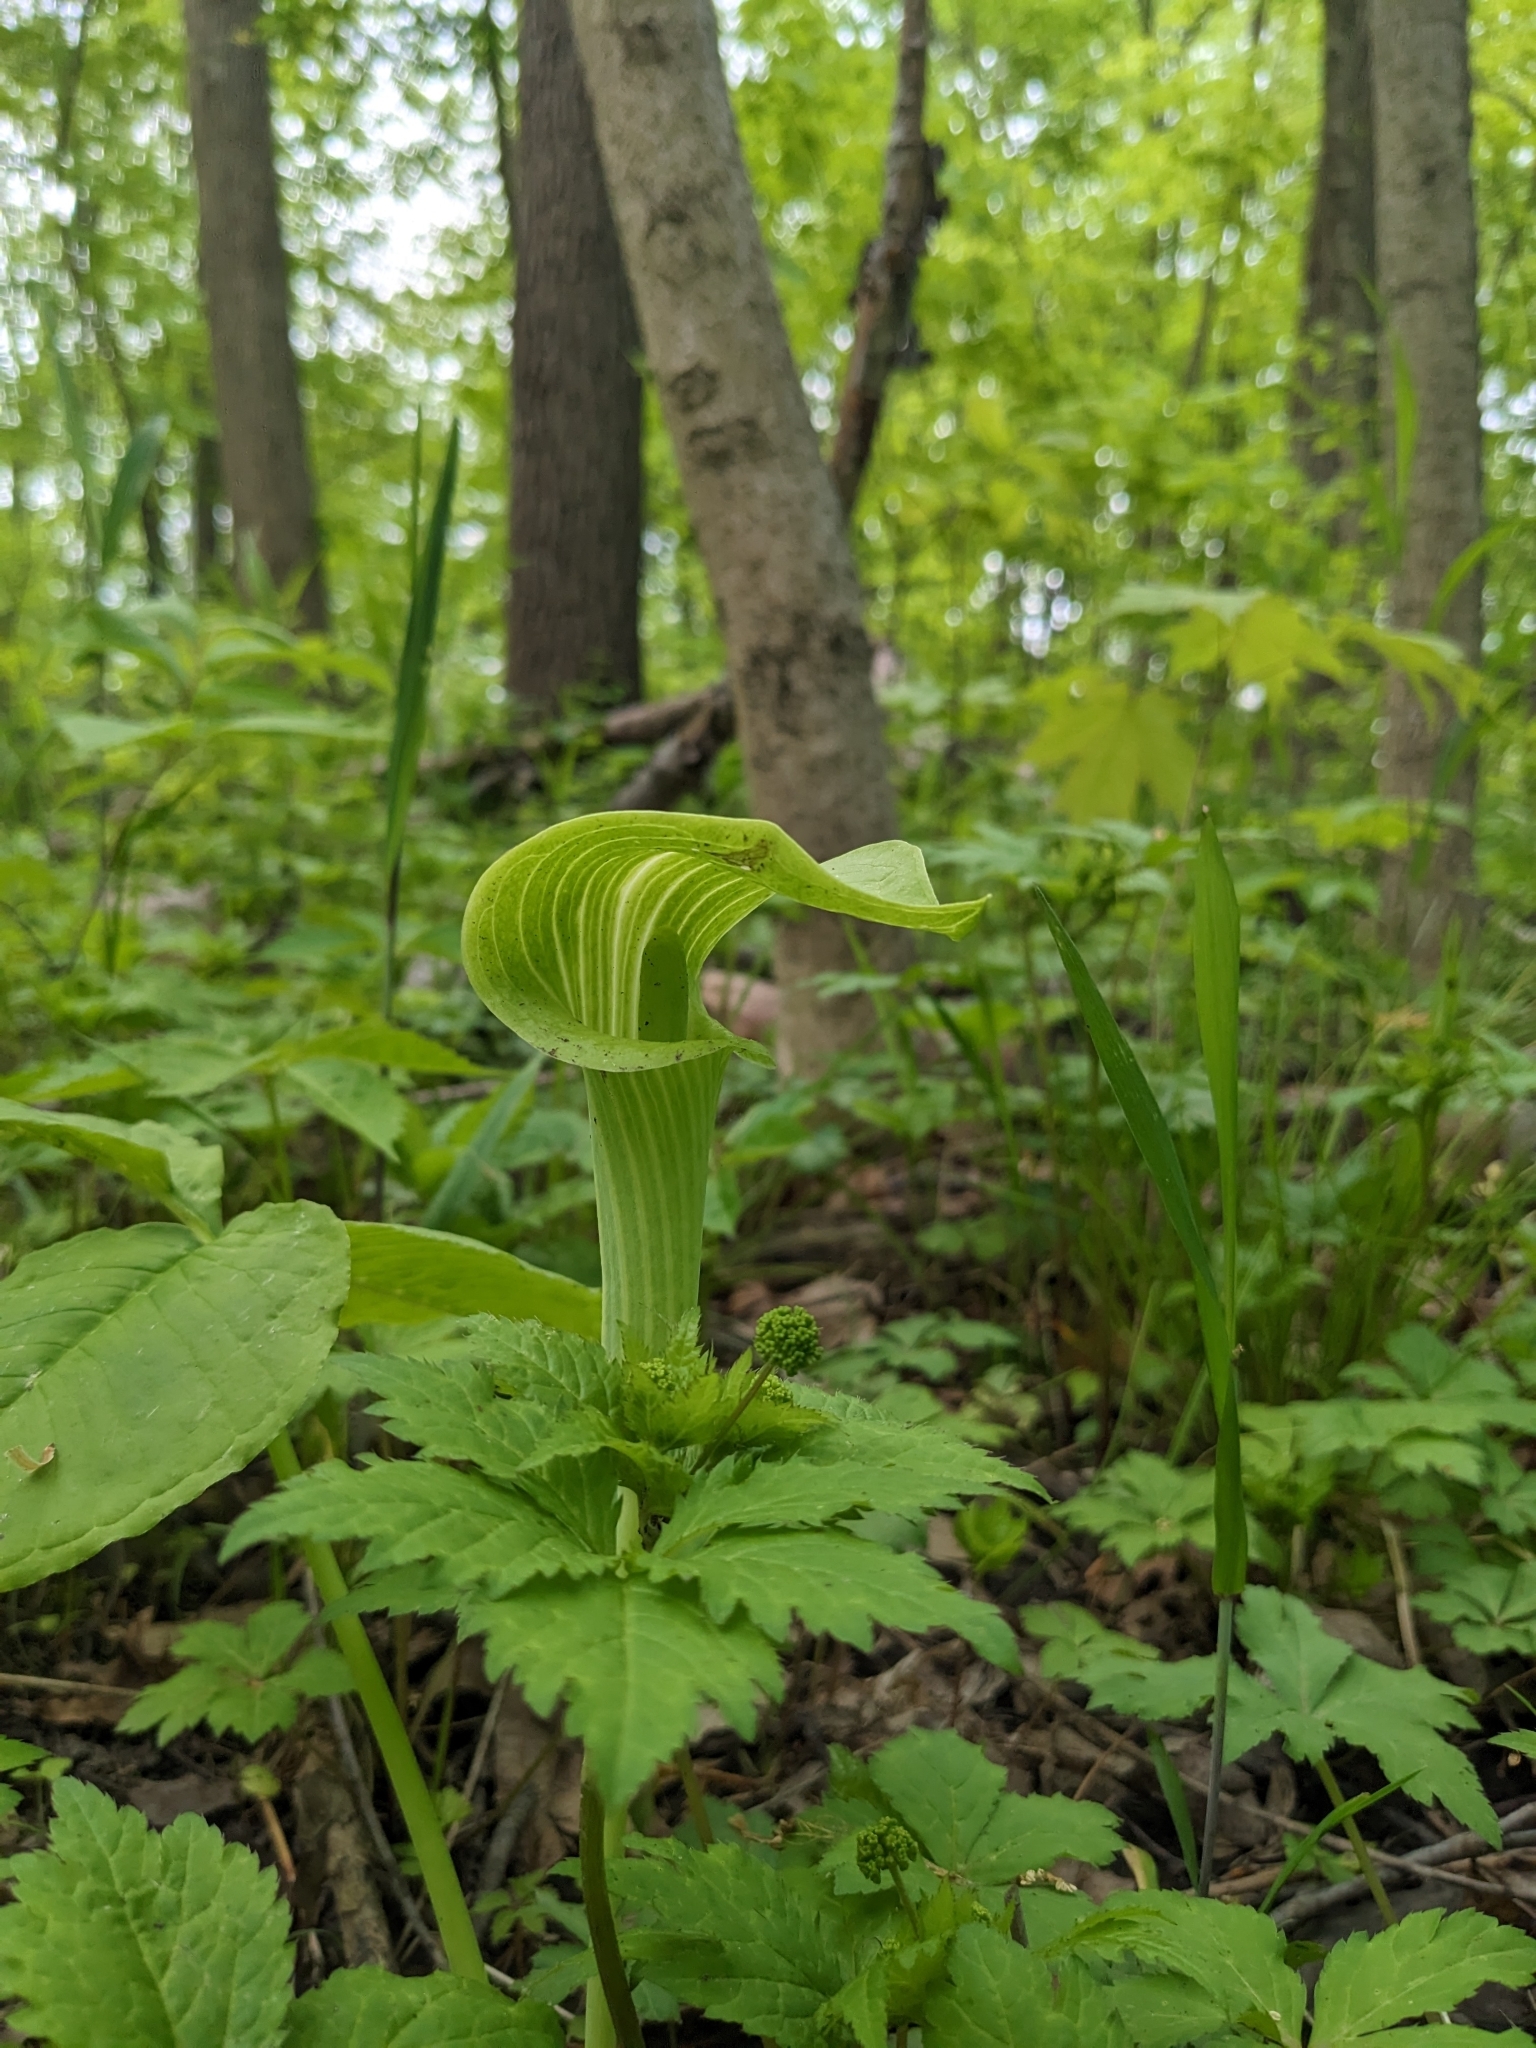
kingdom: Plantae
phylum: Tracheophyta
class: Liliopsida
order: Alismatales
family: Araceae
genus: Arisaema
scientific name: Arisaema triphyllum
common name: Jack-in-the-pulpit
